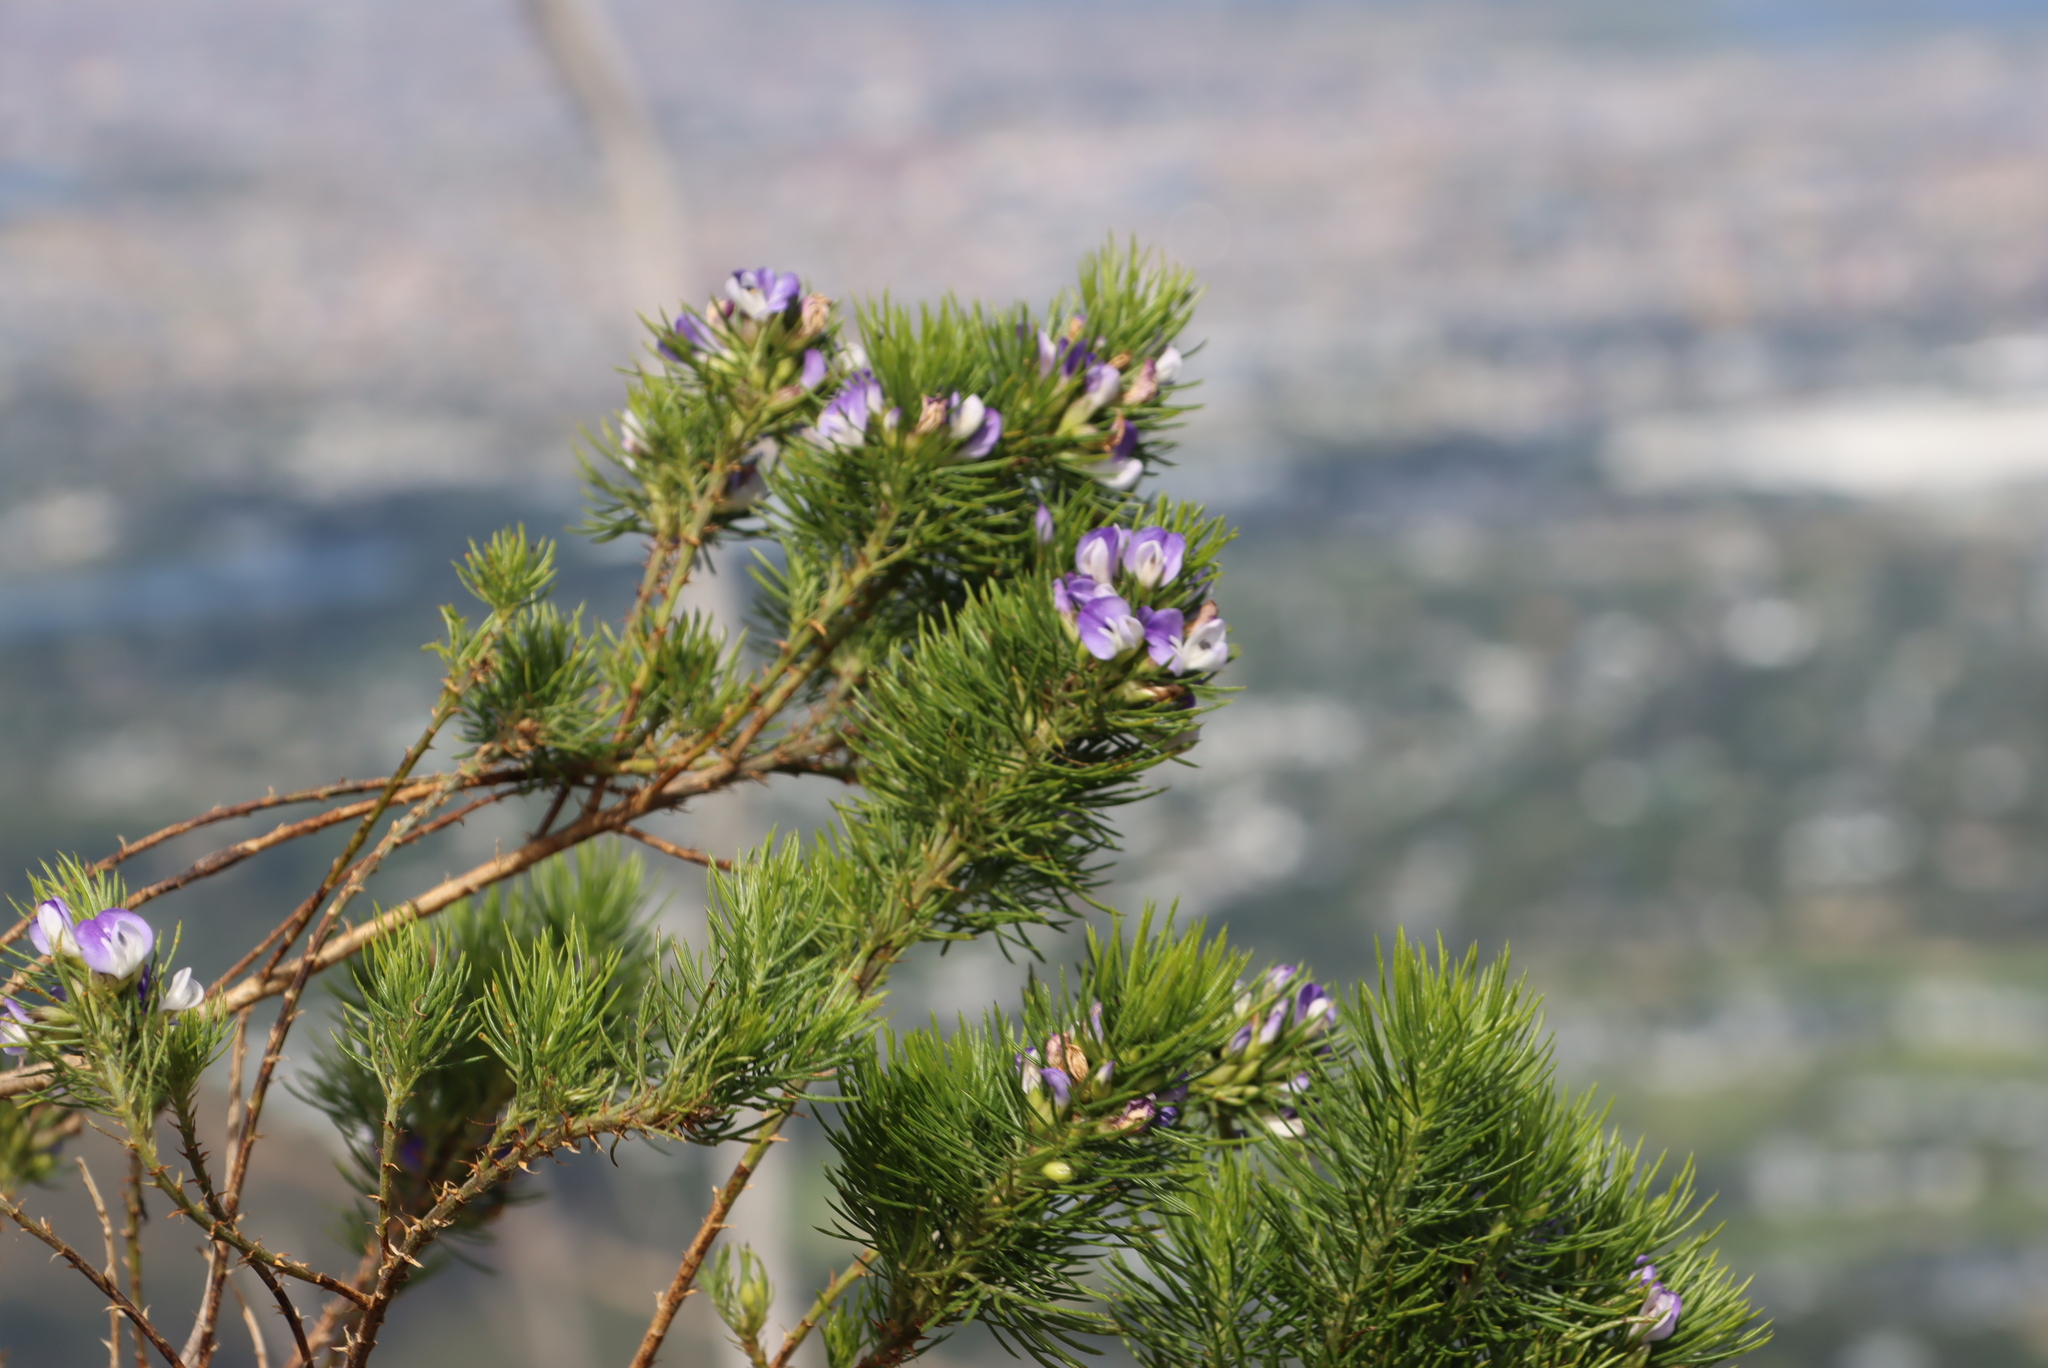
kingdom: Plantae
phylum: Tracheophyta
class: Magnoliopsida
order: Fabales
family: Fabaceae
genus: Psoralea
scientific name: Psoralea pinnata
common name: African scurfpea
